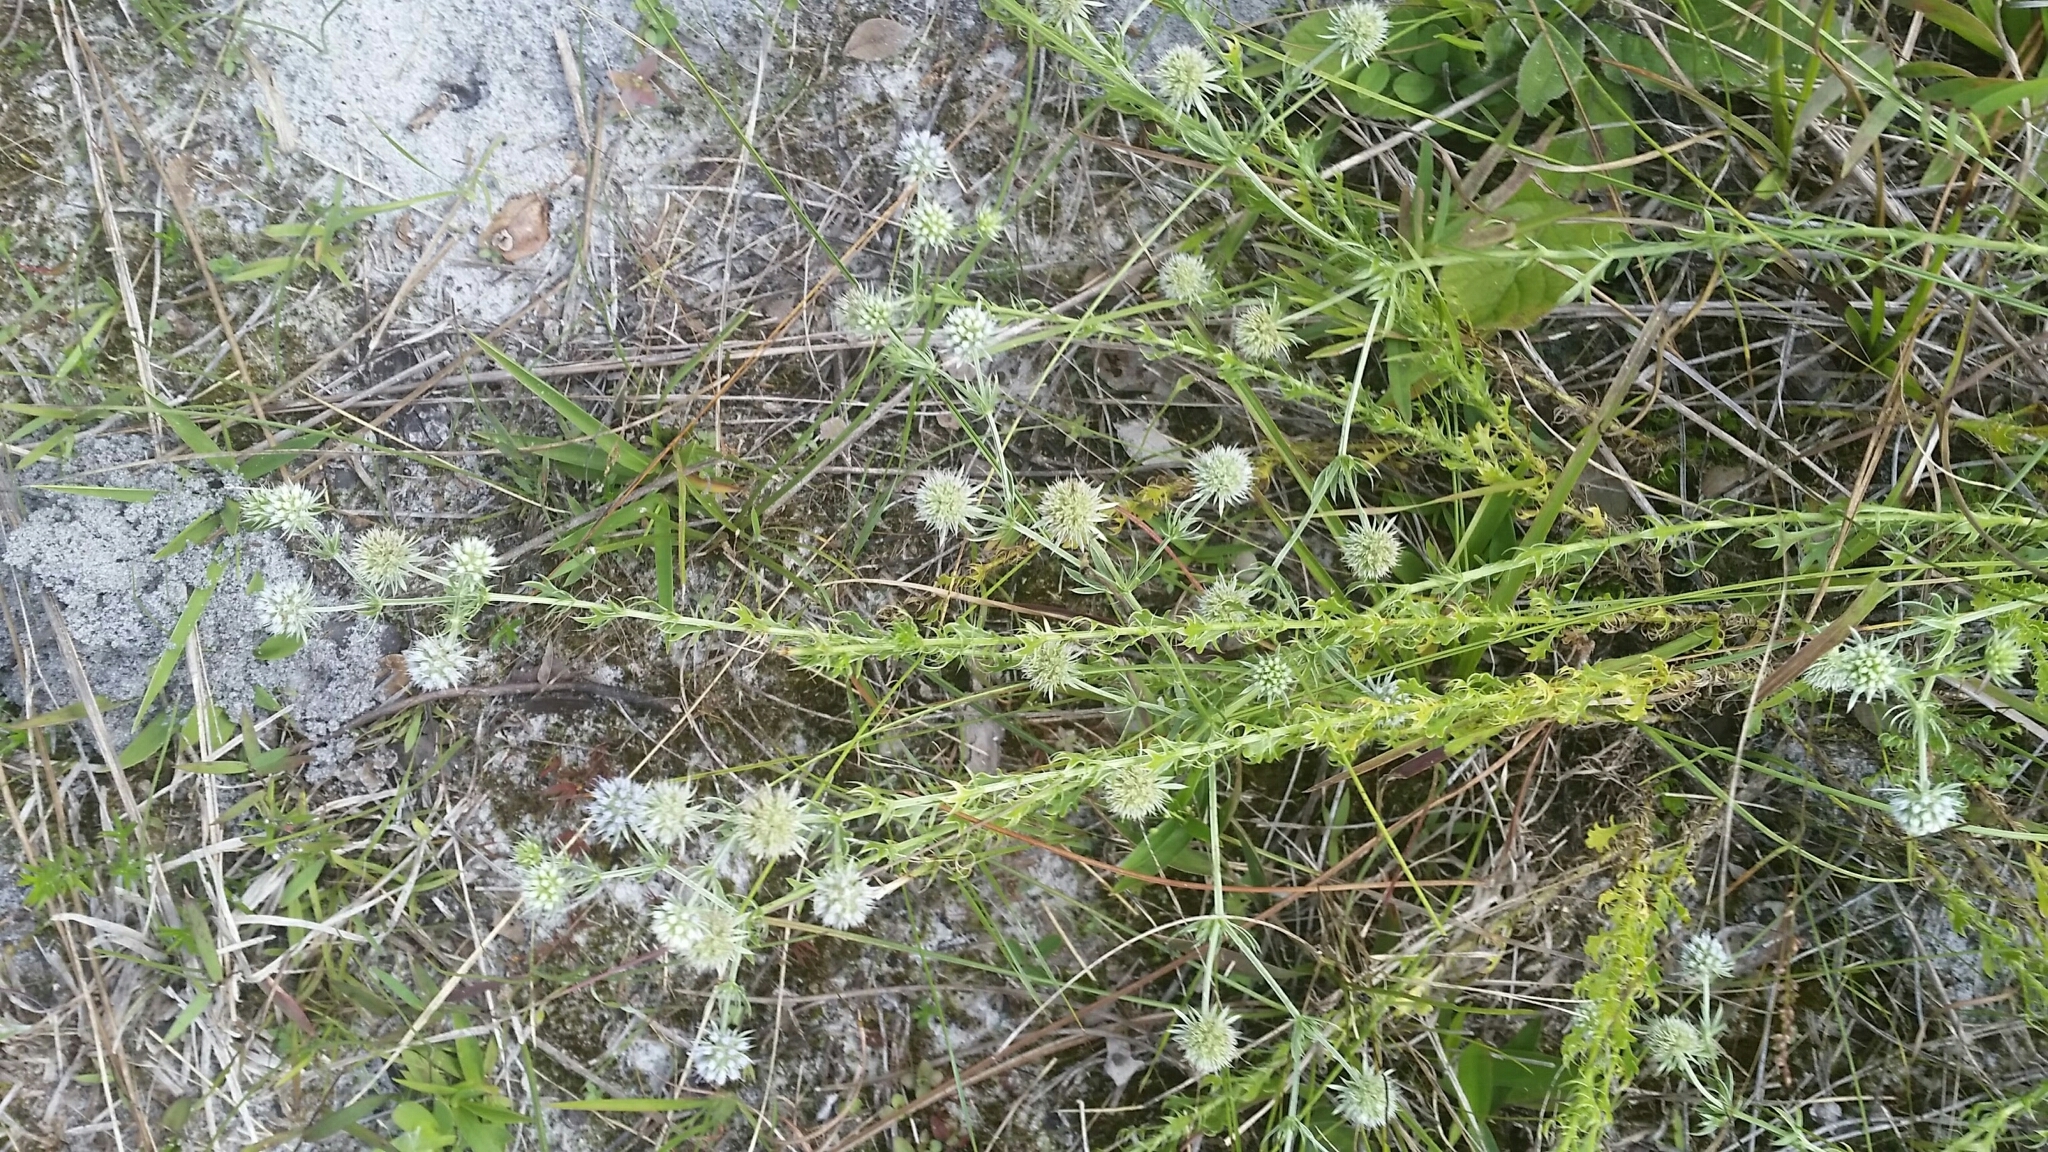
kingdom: Plantae
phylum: Tracheophyta
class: Magnoliopsida
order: Apiales
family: Apiaceae
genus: Eryngium
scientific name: Eryngium aromaticum
